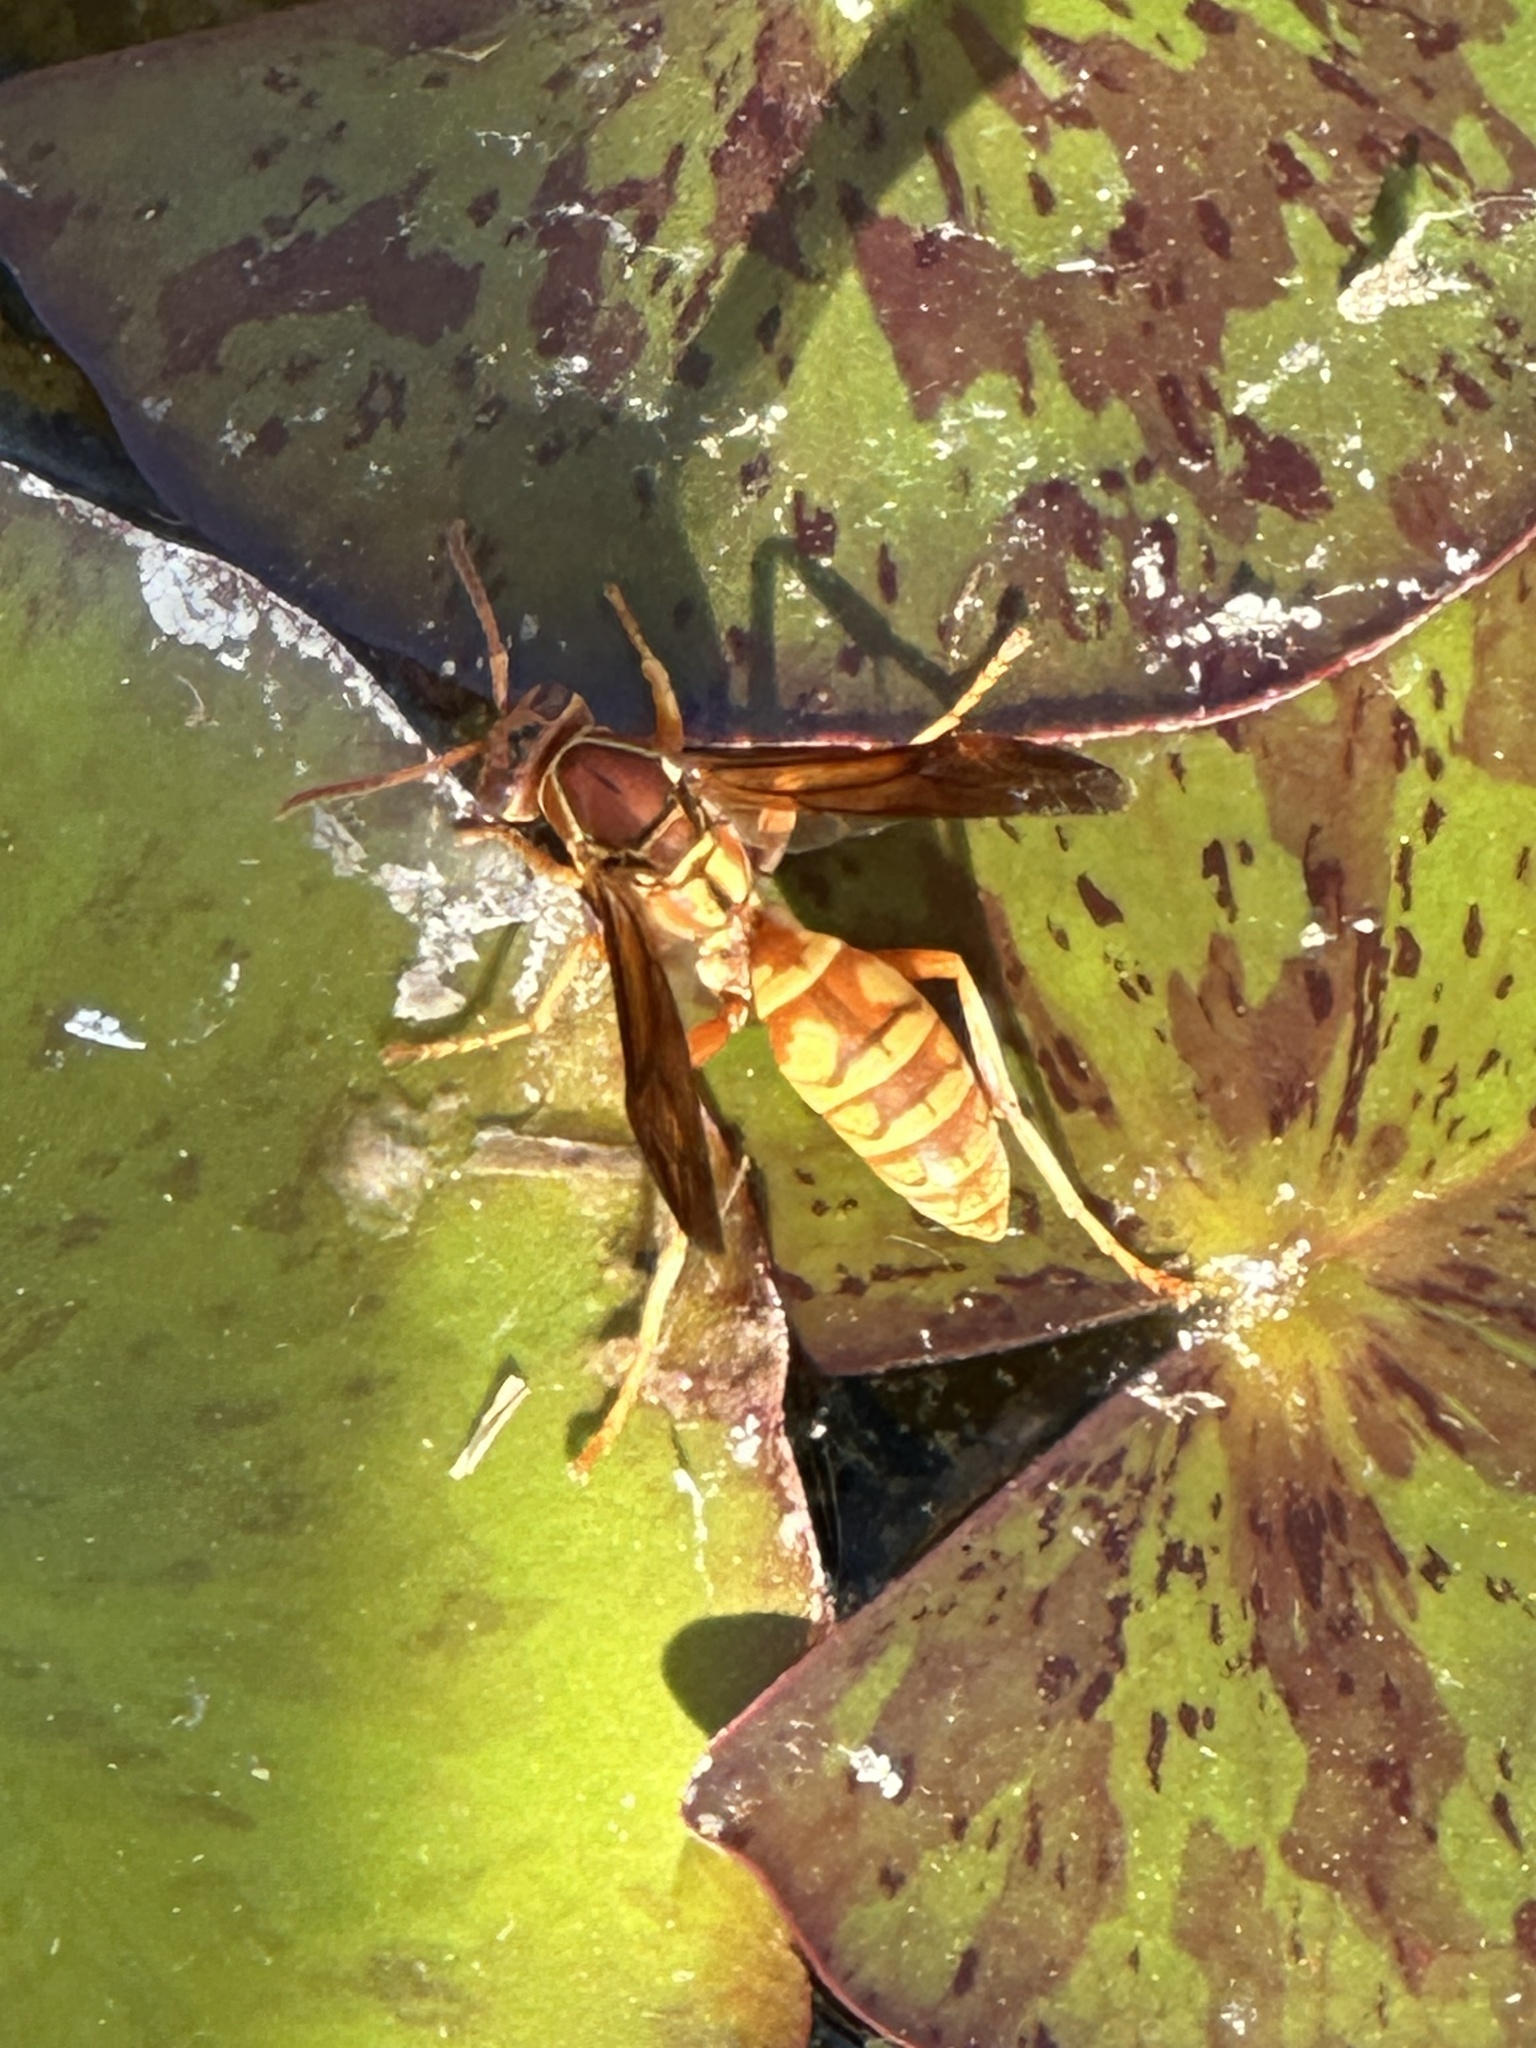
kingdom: Animalia
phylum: Arthropoda
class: Insecta
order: Hymenoptera
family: Eumenidae
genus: Polistes
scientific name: Polistes apachus
